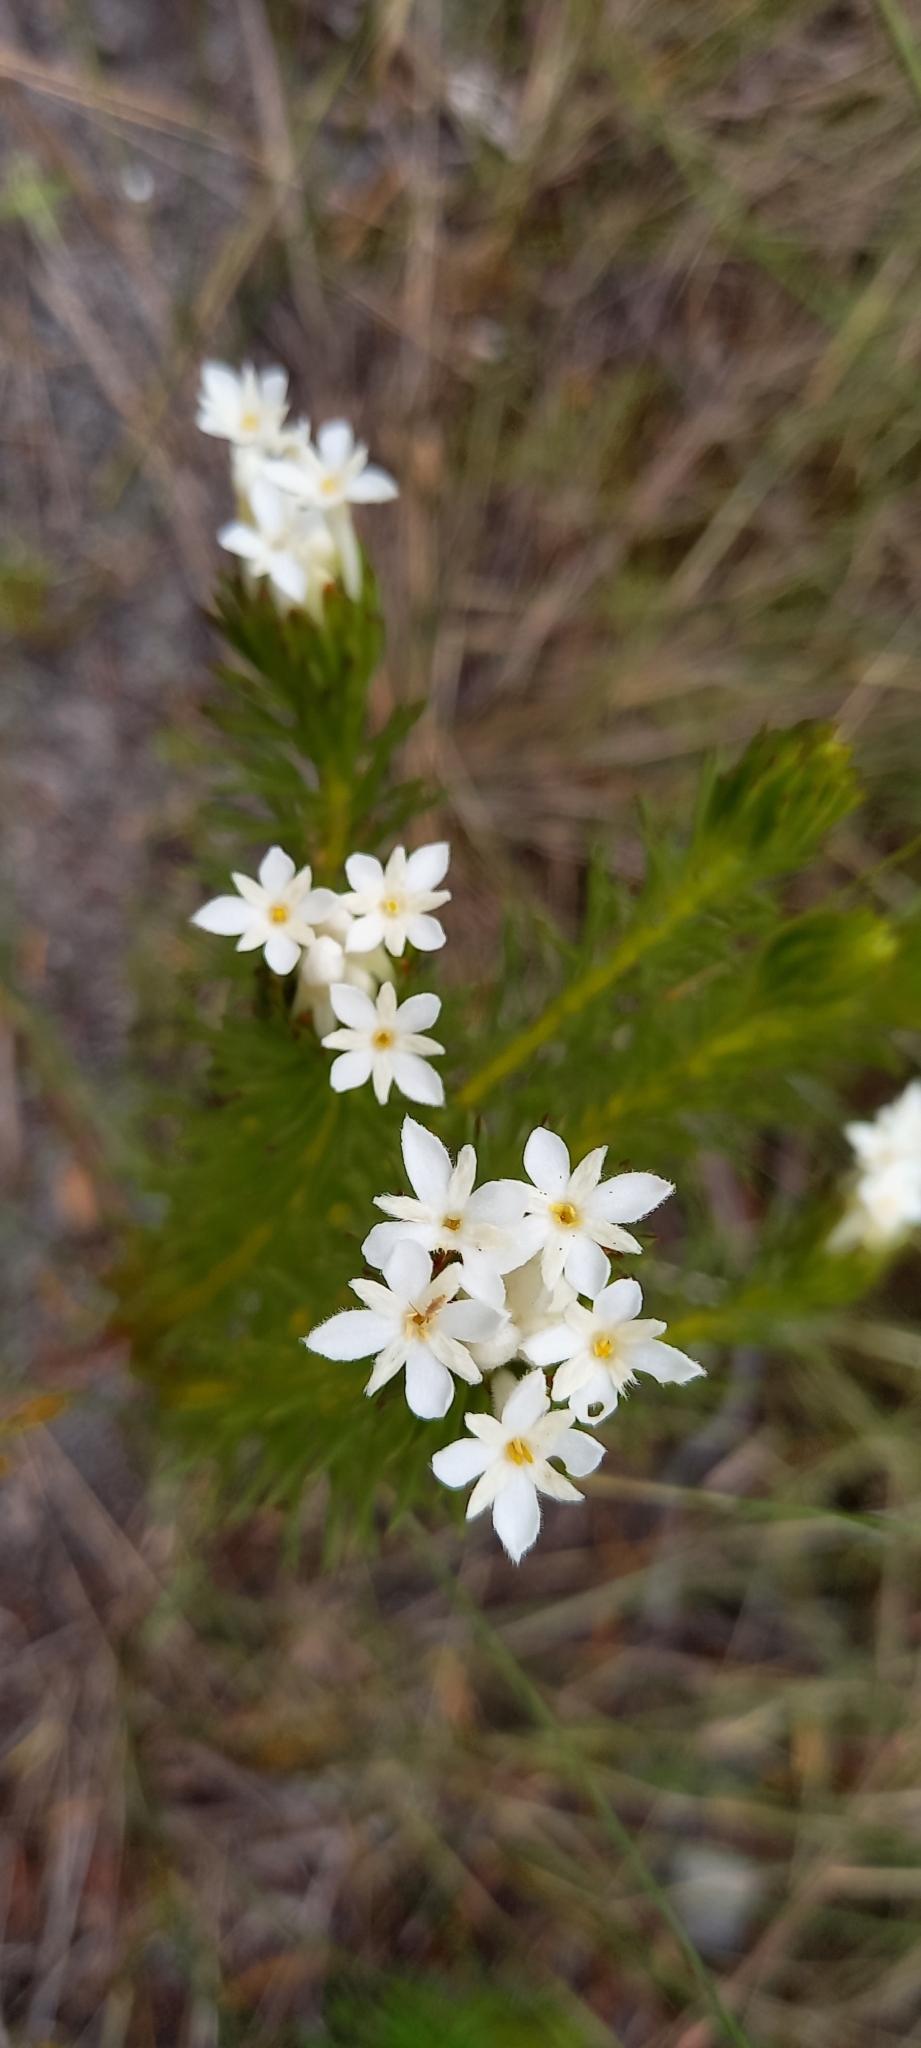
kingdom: Plantae
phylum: Tracheophyta
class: Magnoliopsida
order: Malvales
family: Thymelaeaceae
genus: Gnidia
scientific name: Gnidia pinifolia
